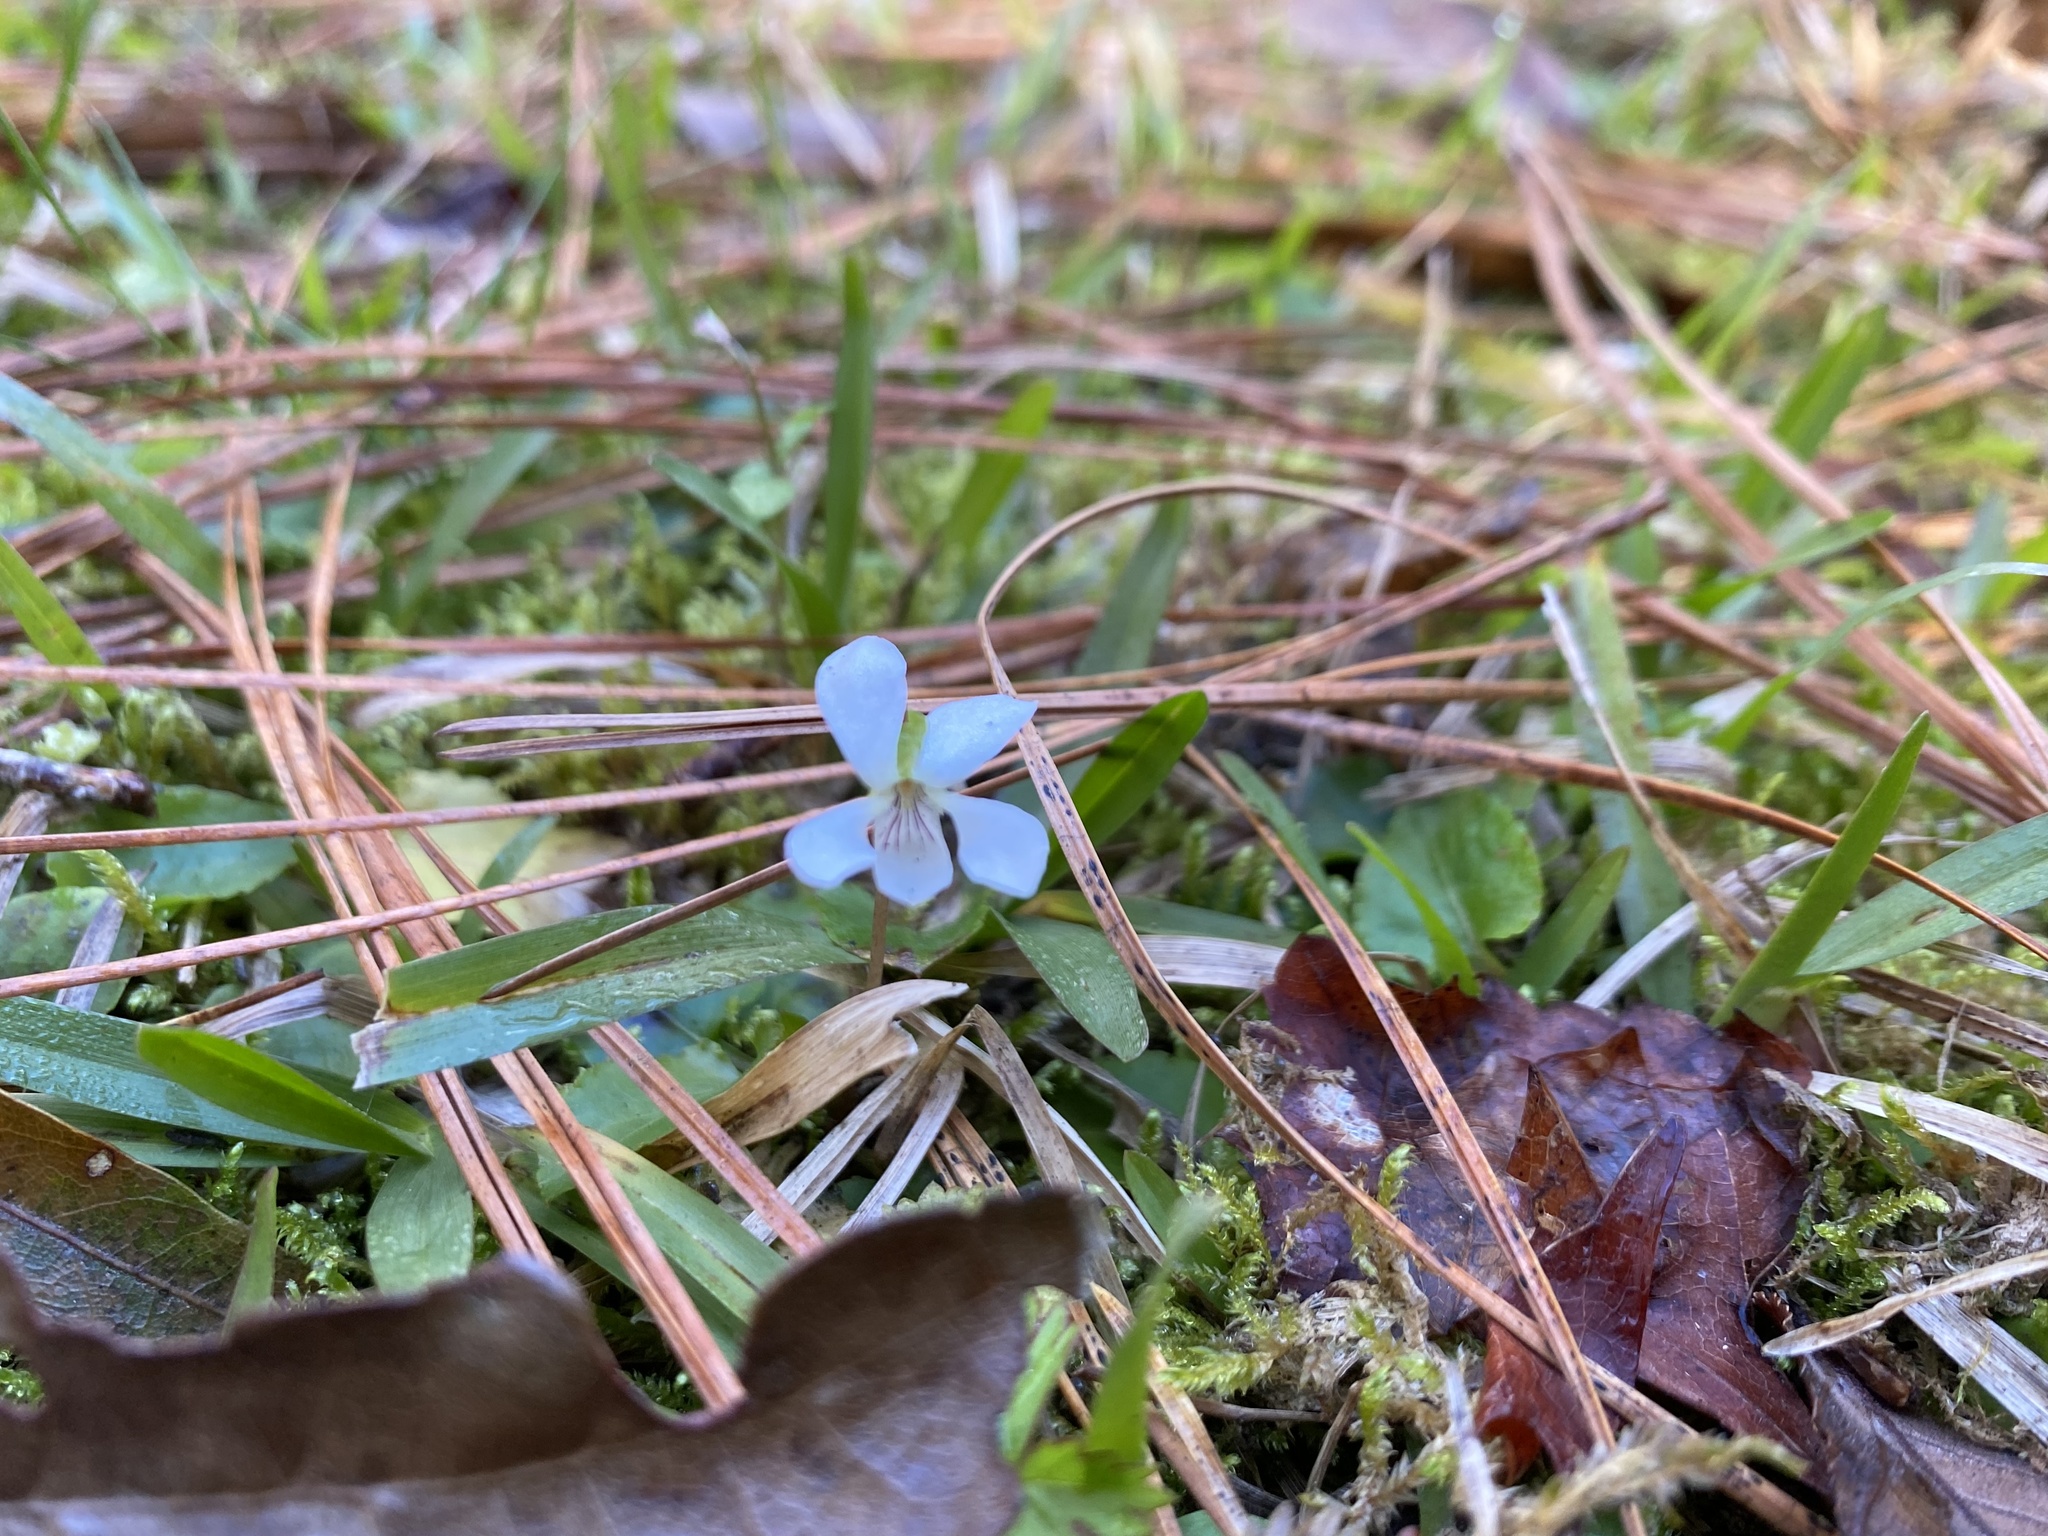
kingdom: Plantae
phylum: Tracheophyta
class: Magnoliopsida
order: Malpighiales
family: Violaceae
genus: Viola
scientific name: Viola primulifolia
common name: Primrose-leaf violet
